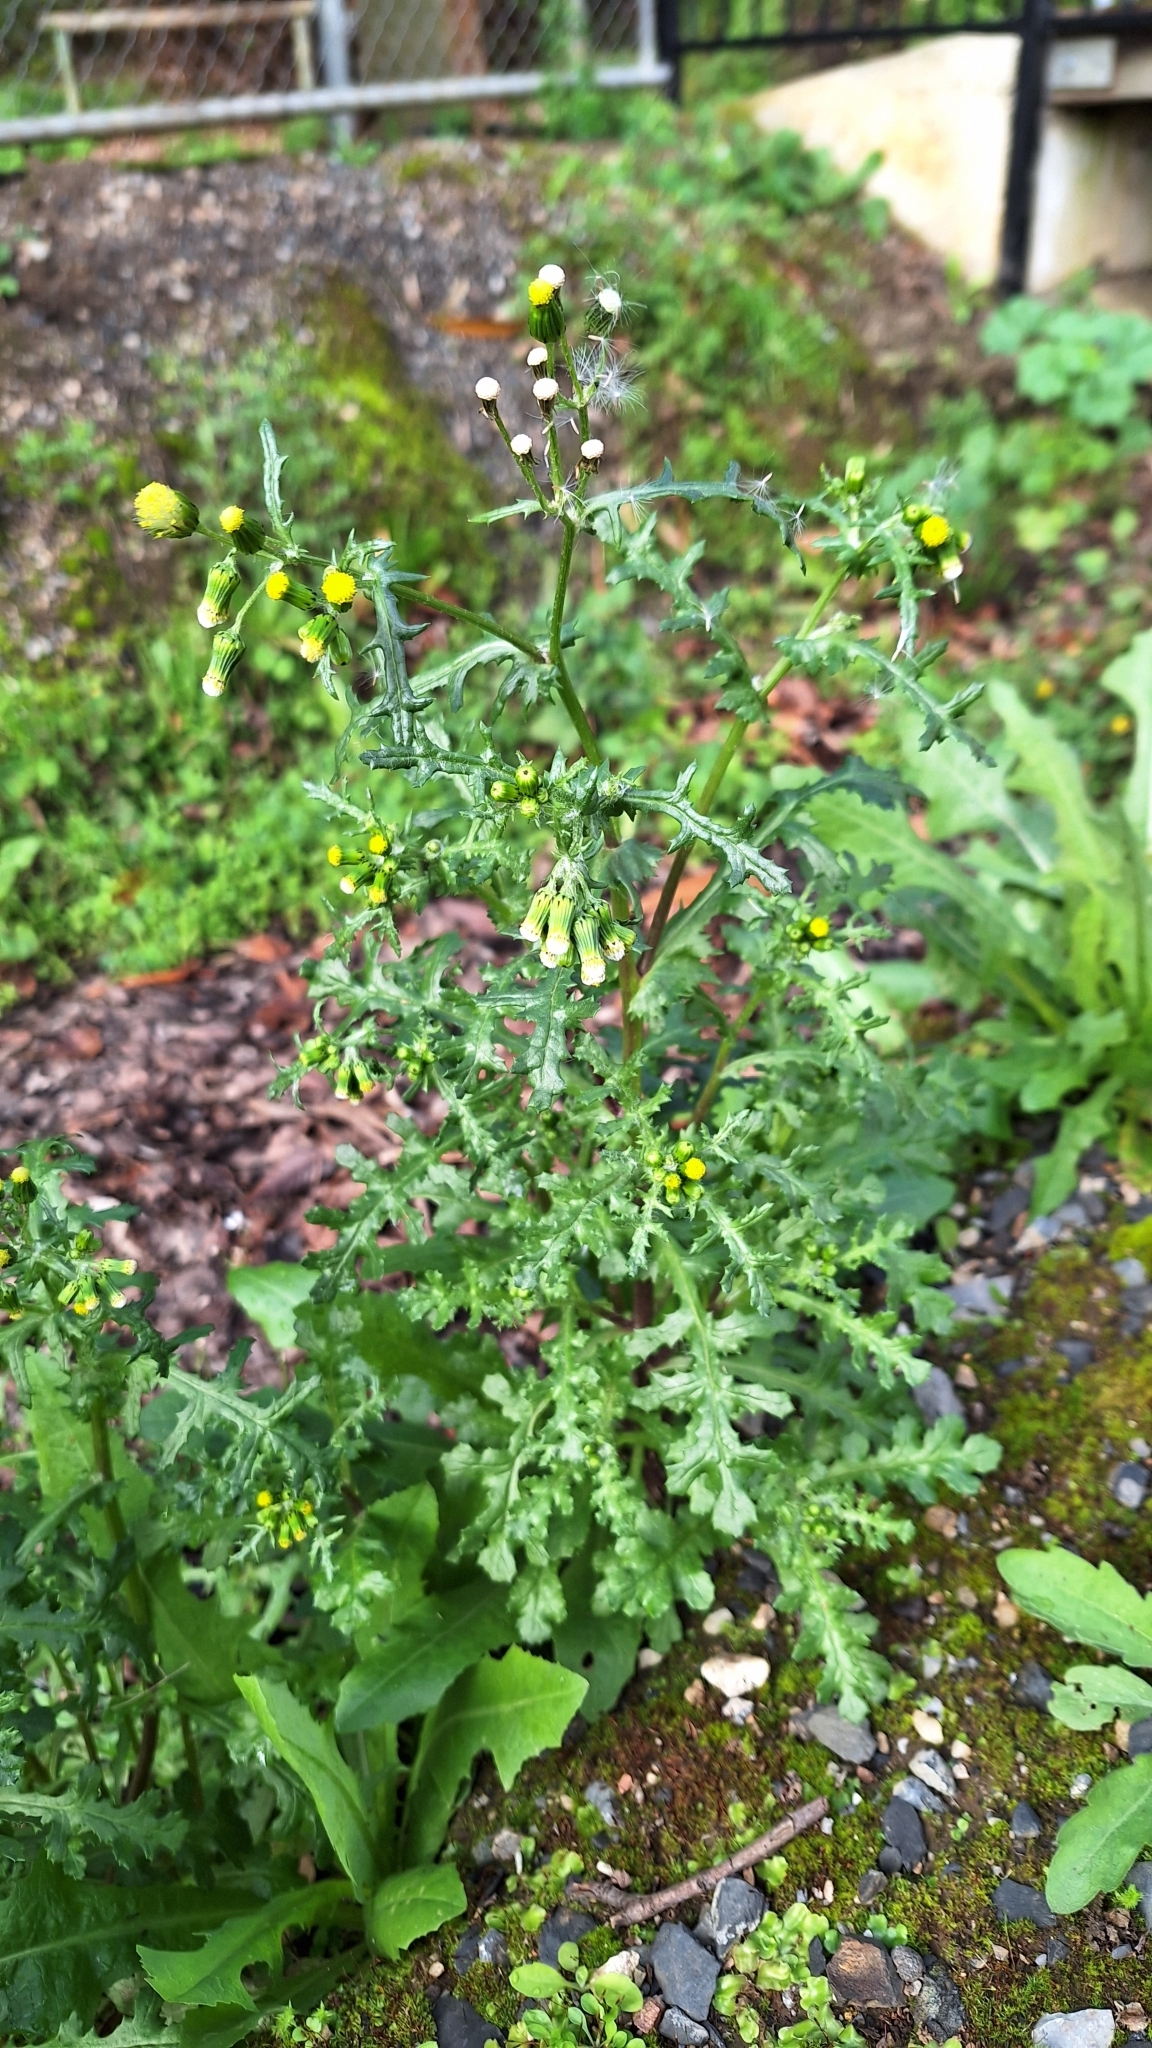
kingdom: Plantae
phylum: Tracheophyta
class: Magnoliopsida
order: Asterales
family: Asteraceae
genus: Senecio
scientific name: Senecio vulgaris
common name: Old-man-in-the-spring
